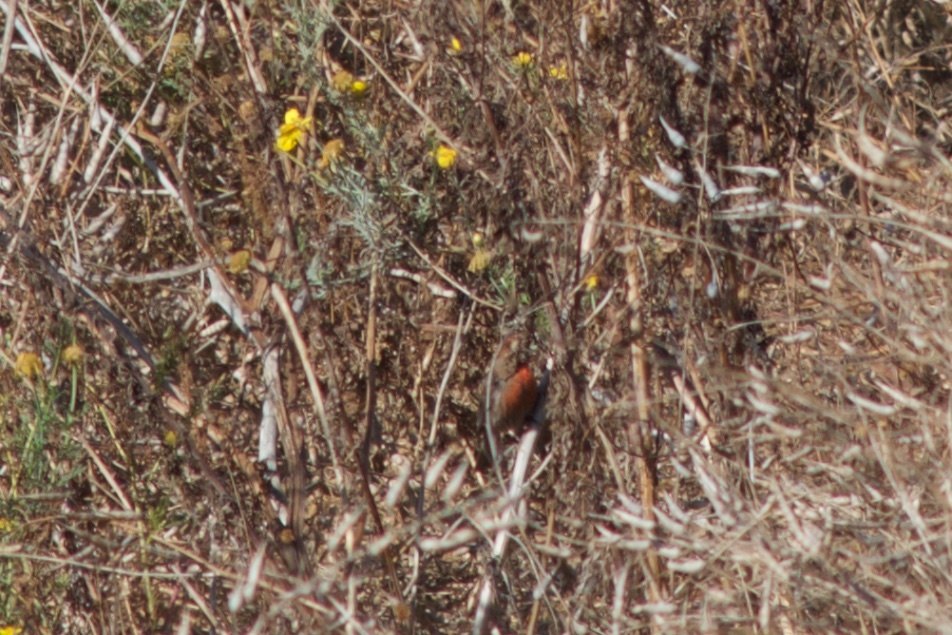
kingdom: Animalia
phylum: Chordata
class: Aves
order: Passeriformes
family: Fringillidae
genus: Haemorhous
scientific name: Haemorhous mexicanus
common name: House finch
